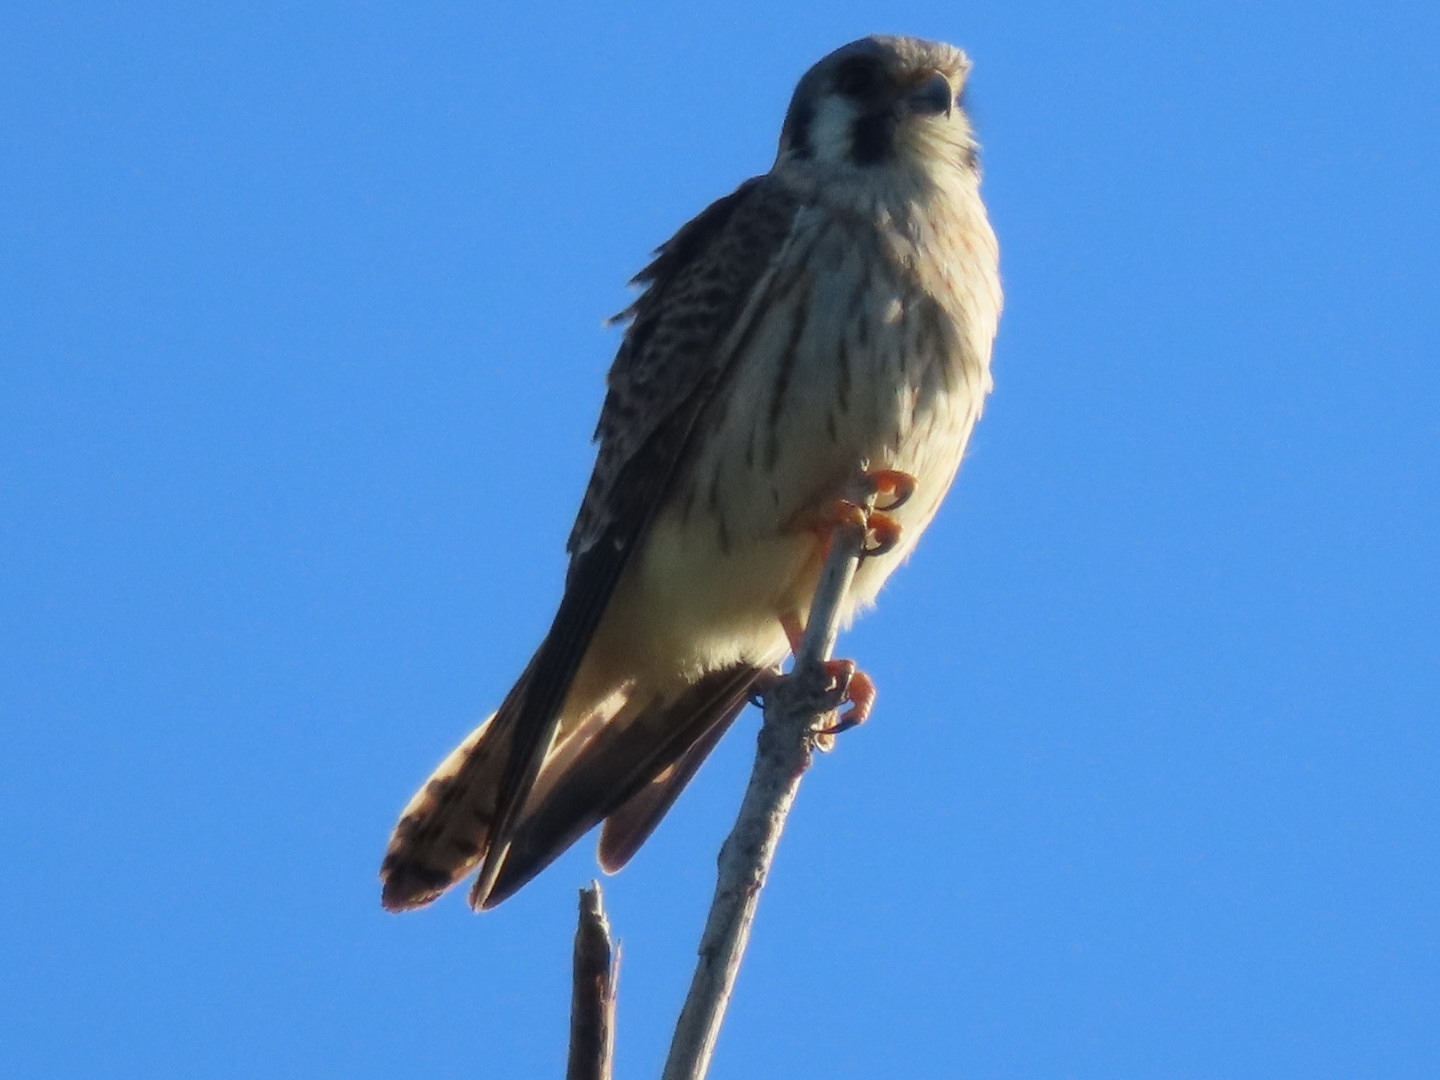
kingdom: Animalia
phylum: Chordata
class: Aves
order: Falconiformes
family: Falconidae
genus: Falco
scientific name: Falco sparverius
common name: American kestrel
